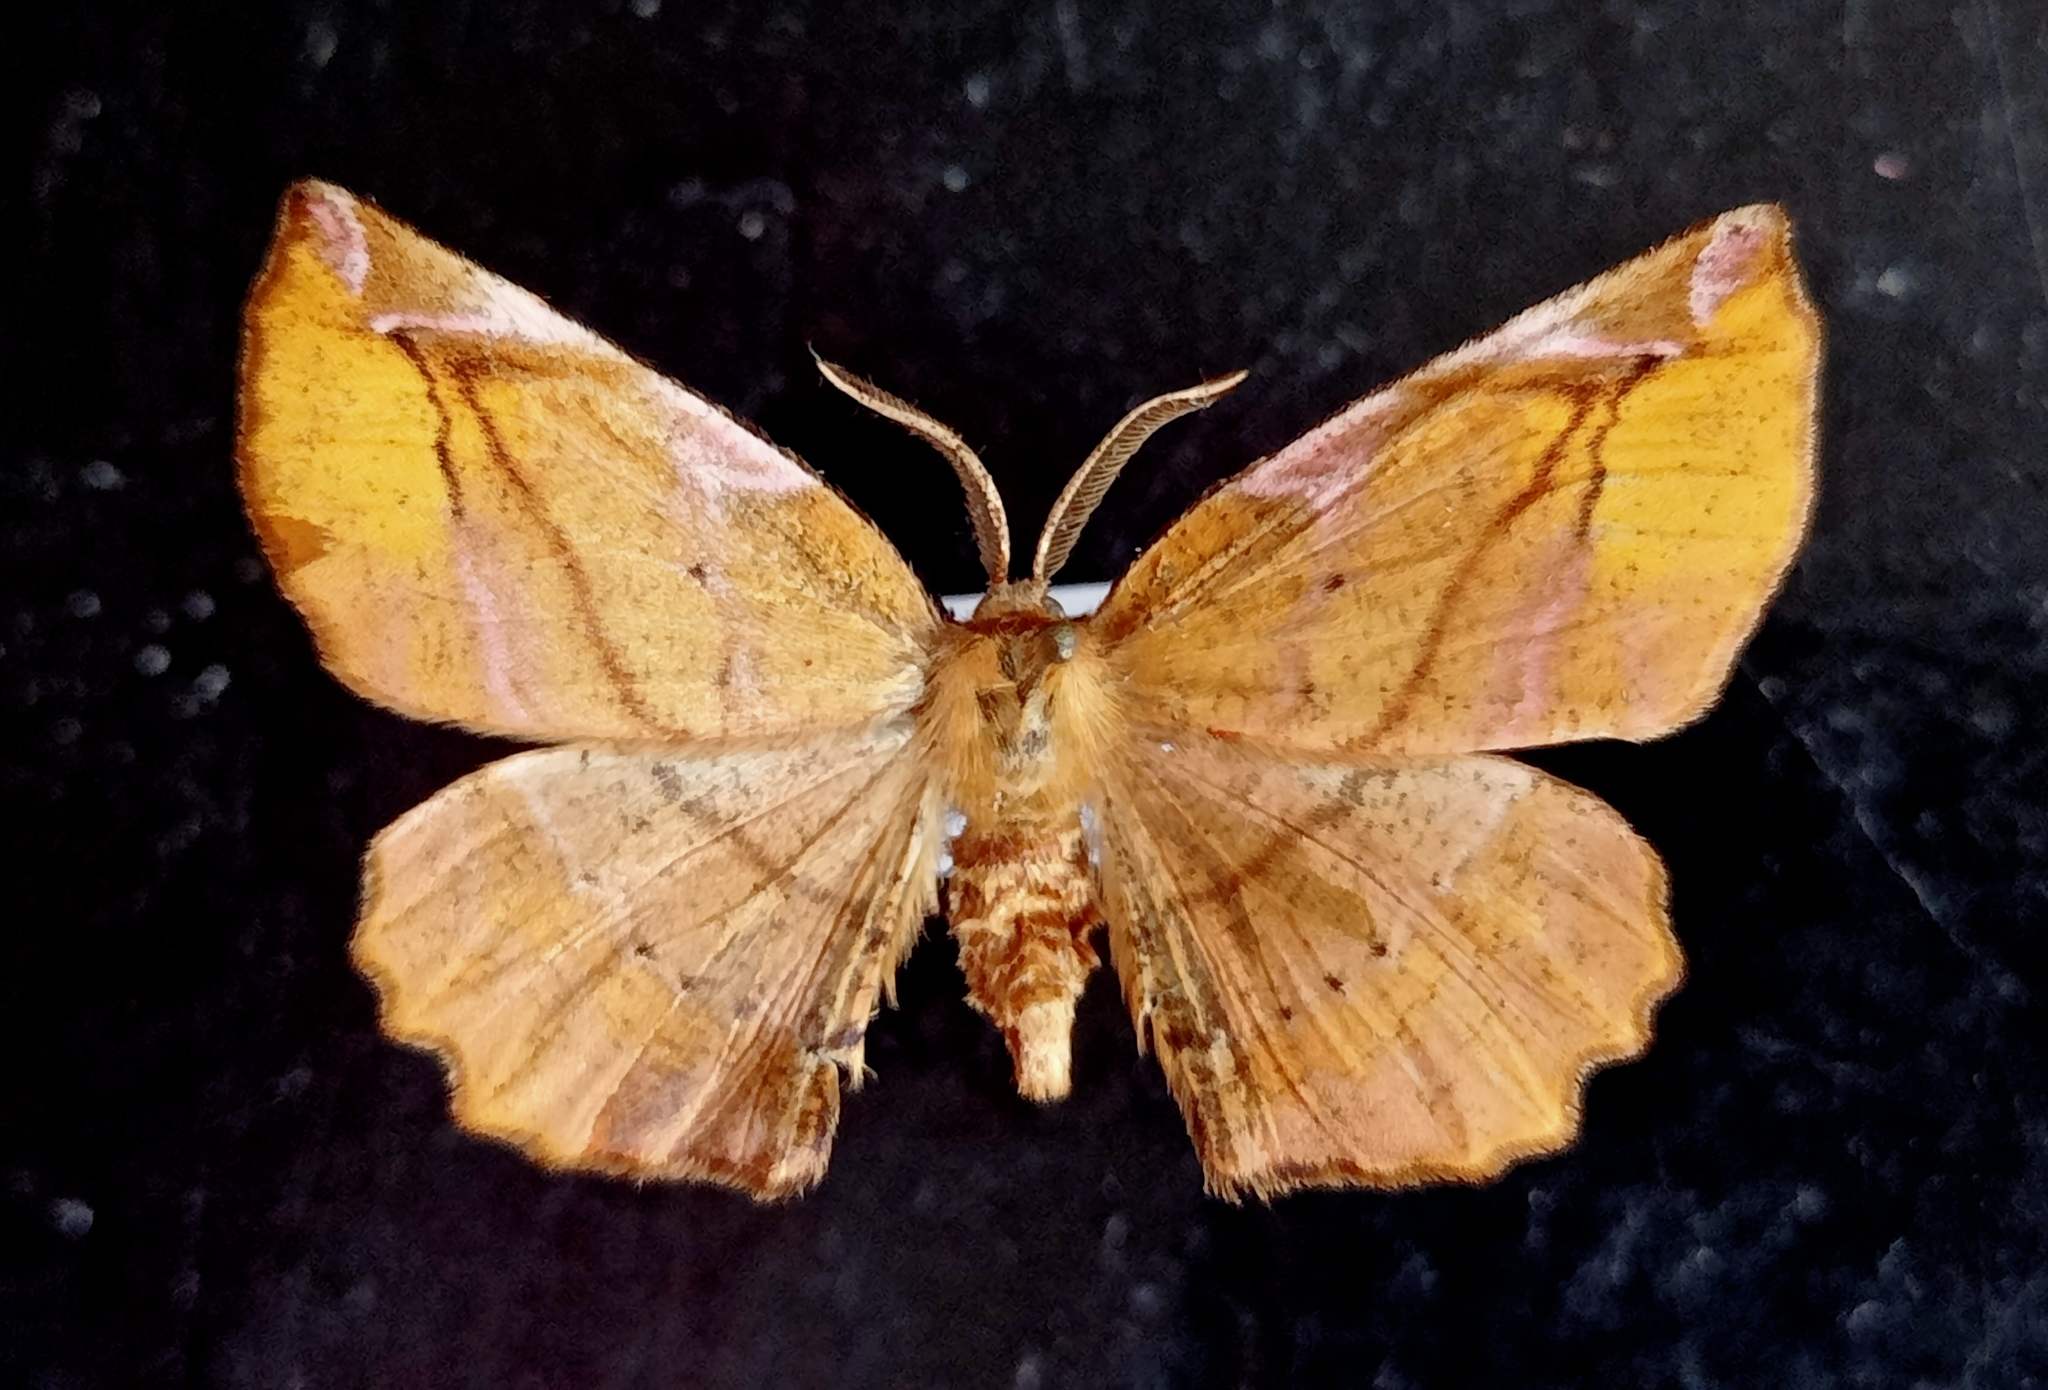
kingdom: Animalia
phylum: Arthropoda
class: Insecta
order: Lepidoptera
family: Geometridae
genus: Apeira
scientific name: Apeira syringaria
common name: Lilac beauty
